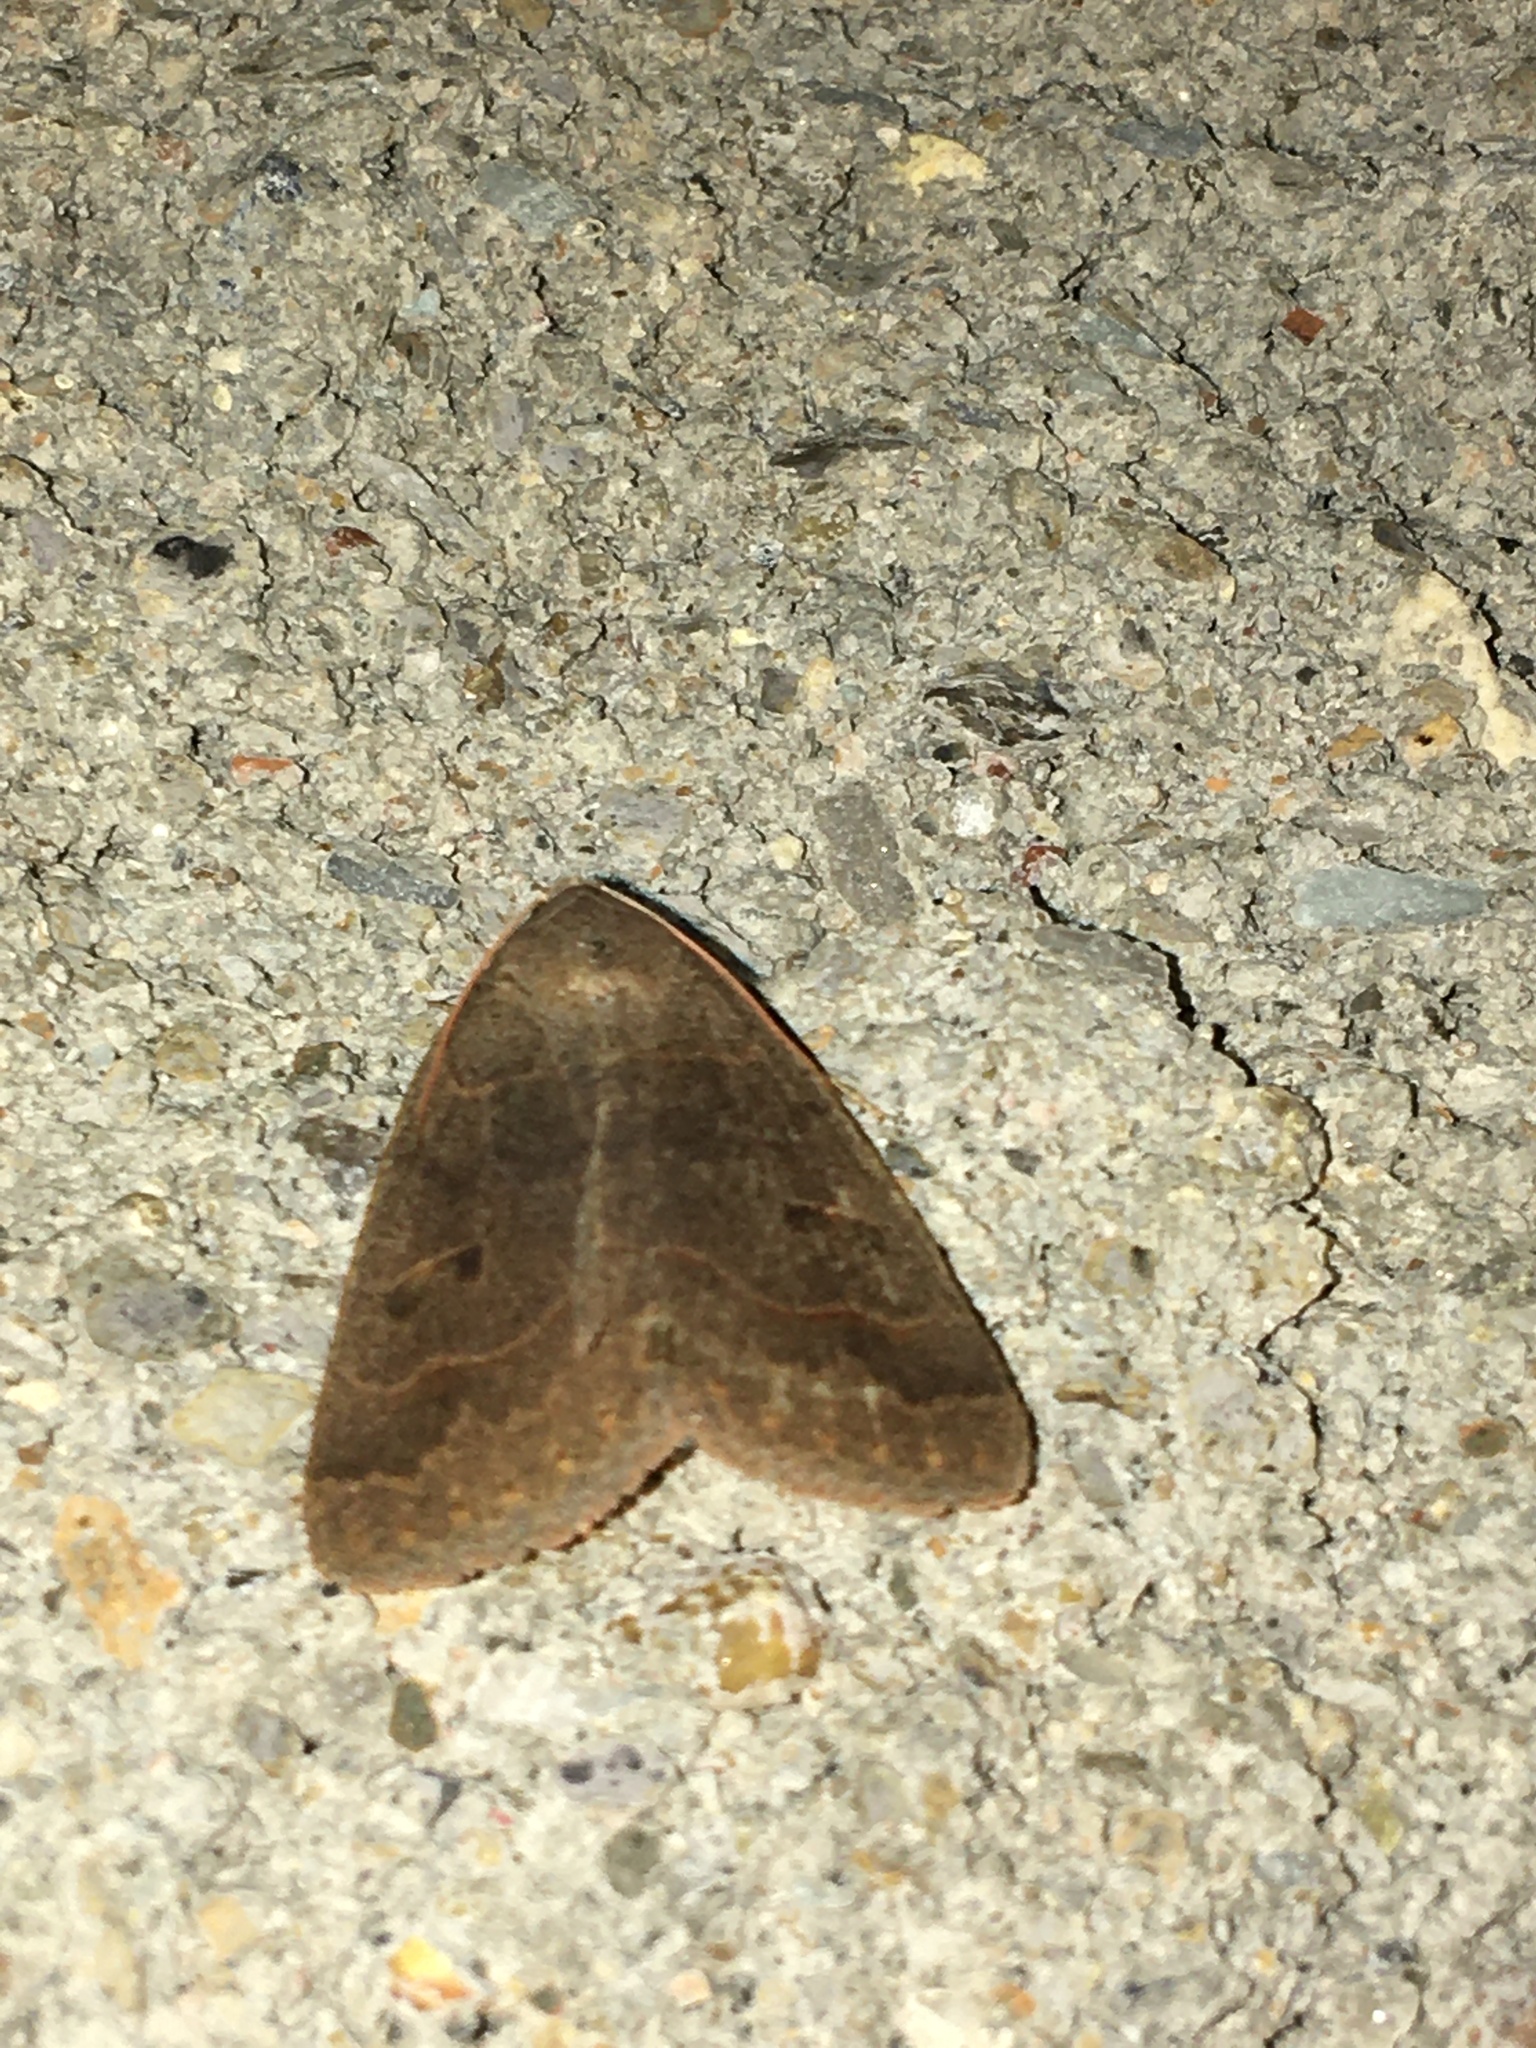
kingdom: Animalia
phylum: Arthropoda
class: Insecta
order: Lepidoptera
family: Erebidae
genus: Phoberia
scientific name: Phoberia atomaris
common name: Common oak moth
